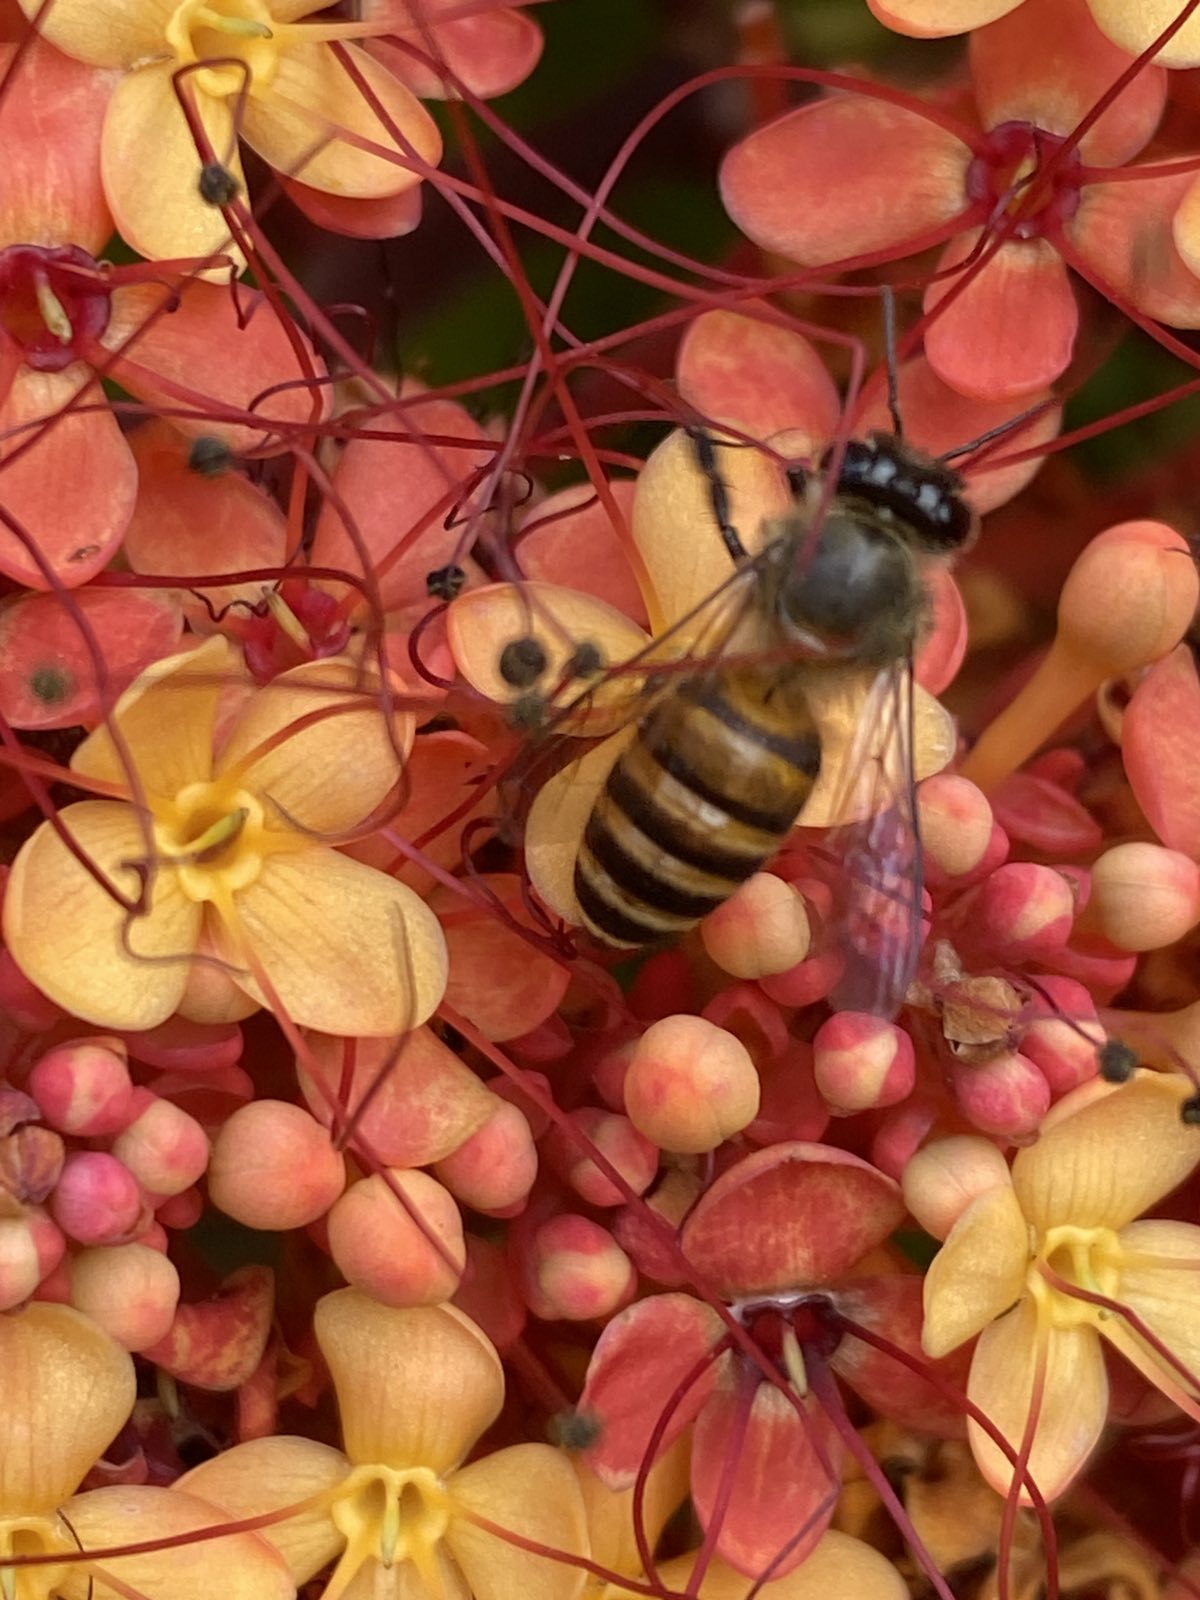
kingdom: Animalia
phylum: Arthropoda
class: Insecta
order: Hymenoptera
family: Apidae
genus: Apis
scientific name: Apis cerana
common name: Honey bee
